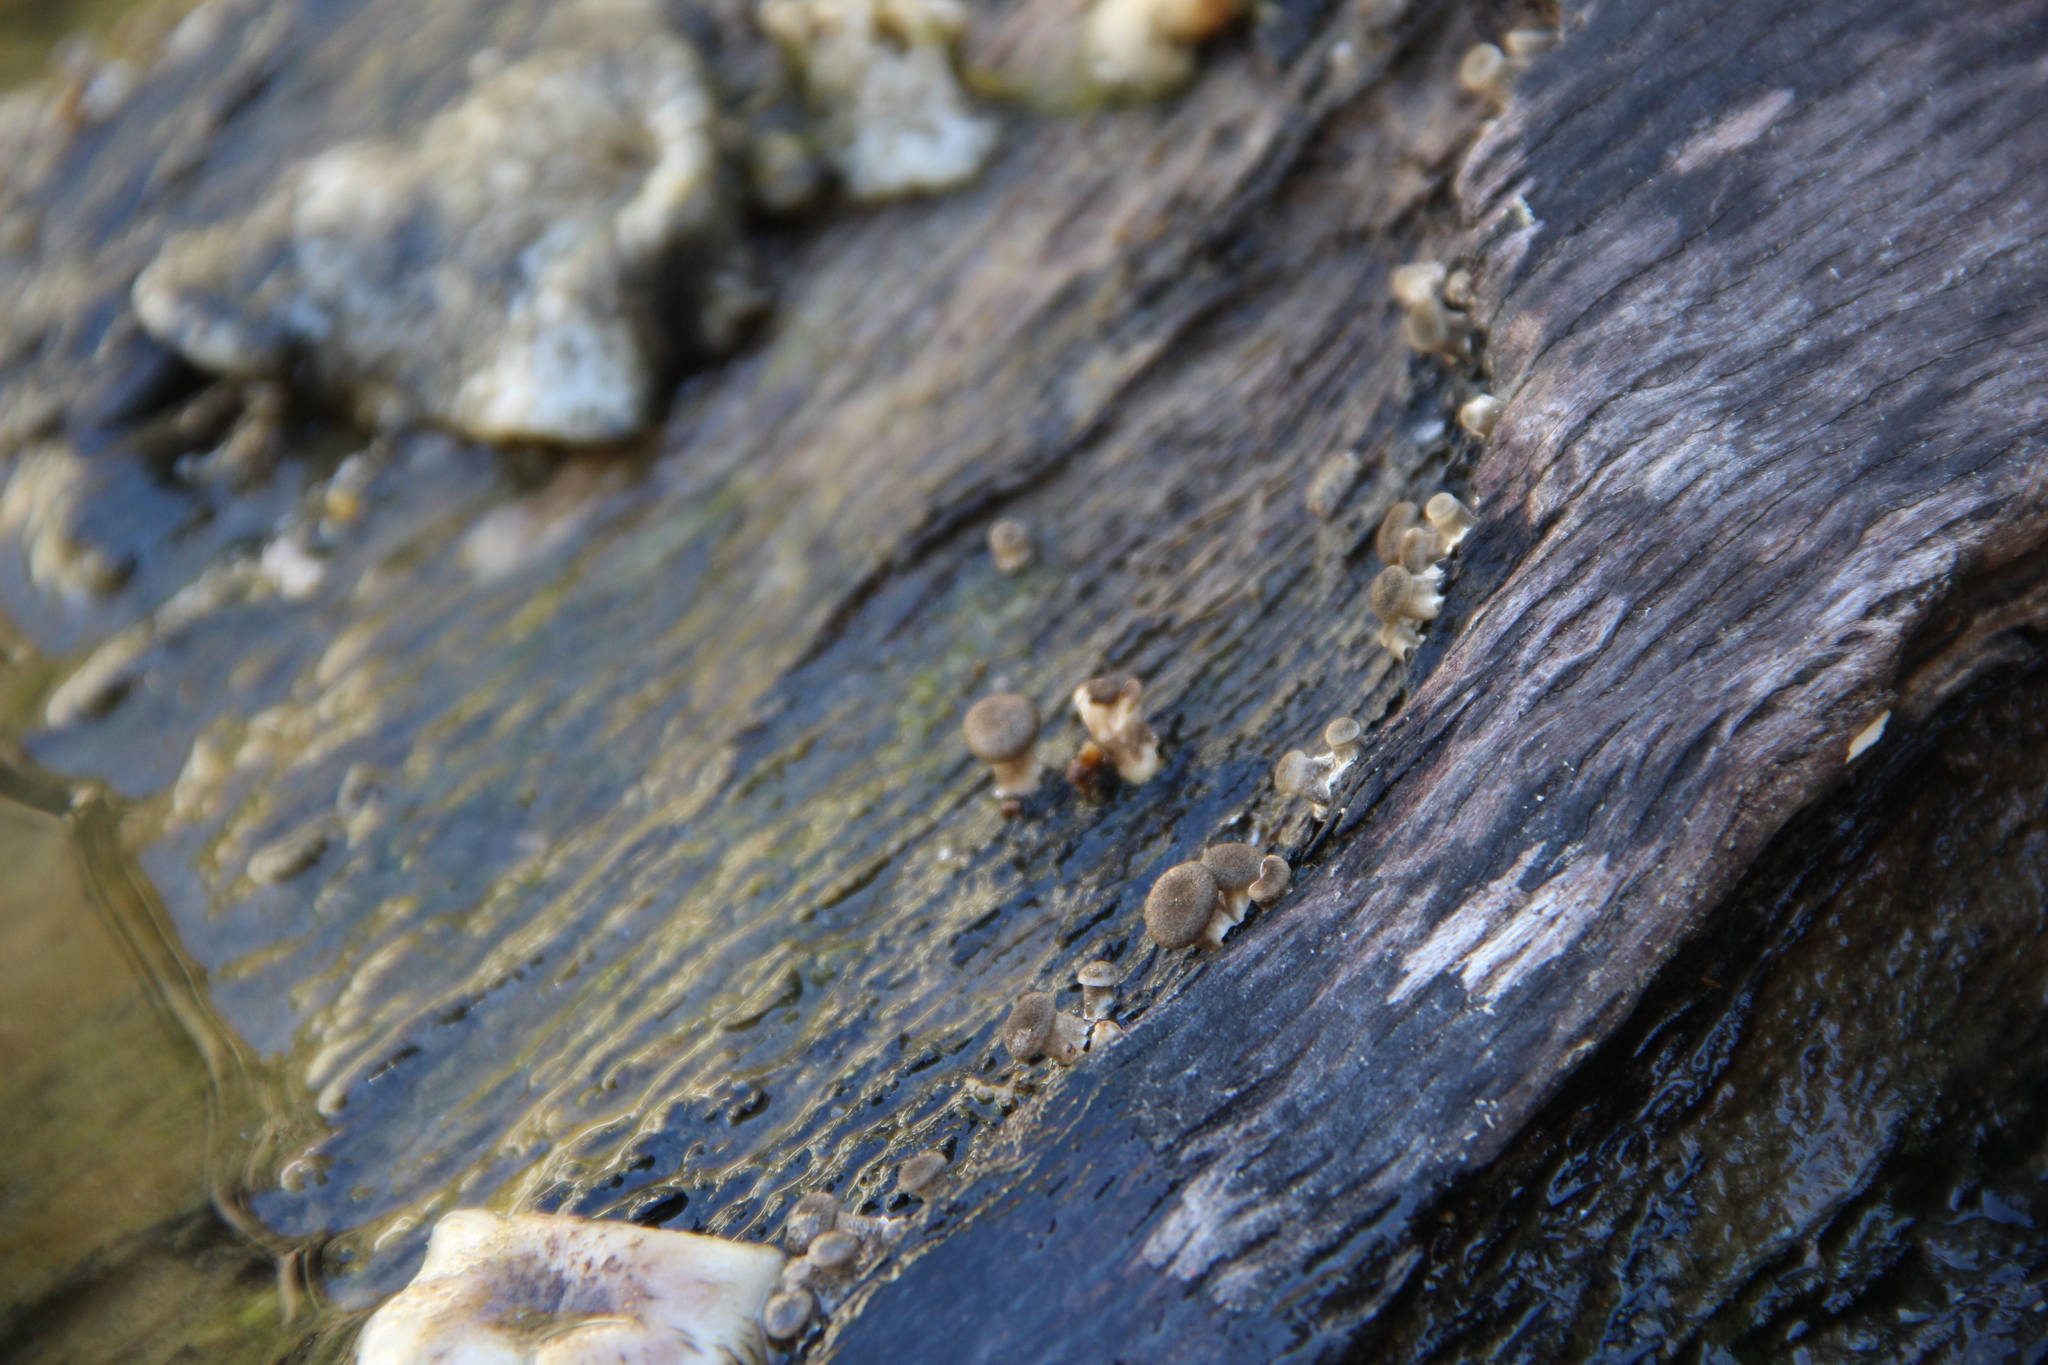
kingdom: Fungi
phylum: Basidiomycota
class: Agaricomycetes
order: Polyporales
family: Polyporaceae
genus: Lentinus
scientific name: Lentinus tigrinus
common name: Tiger sawgill
